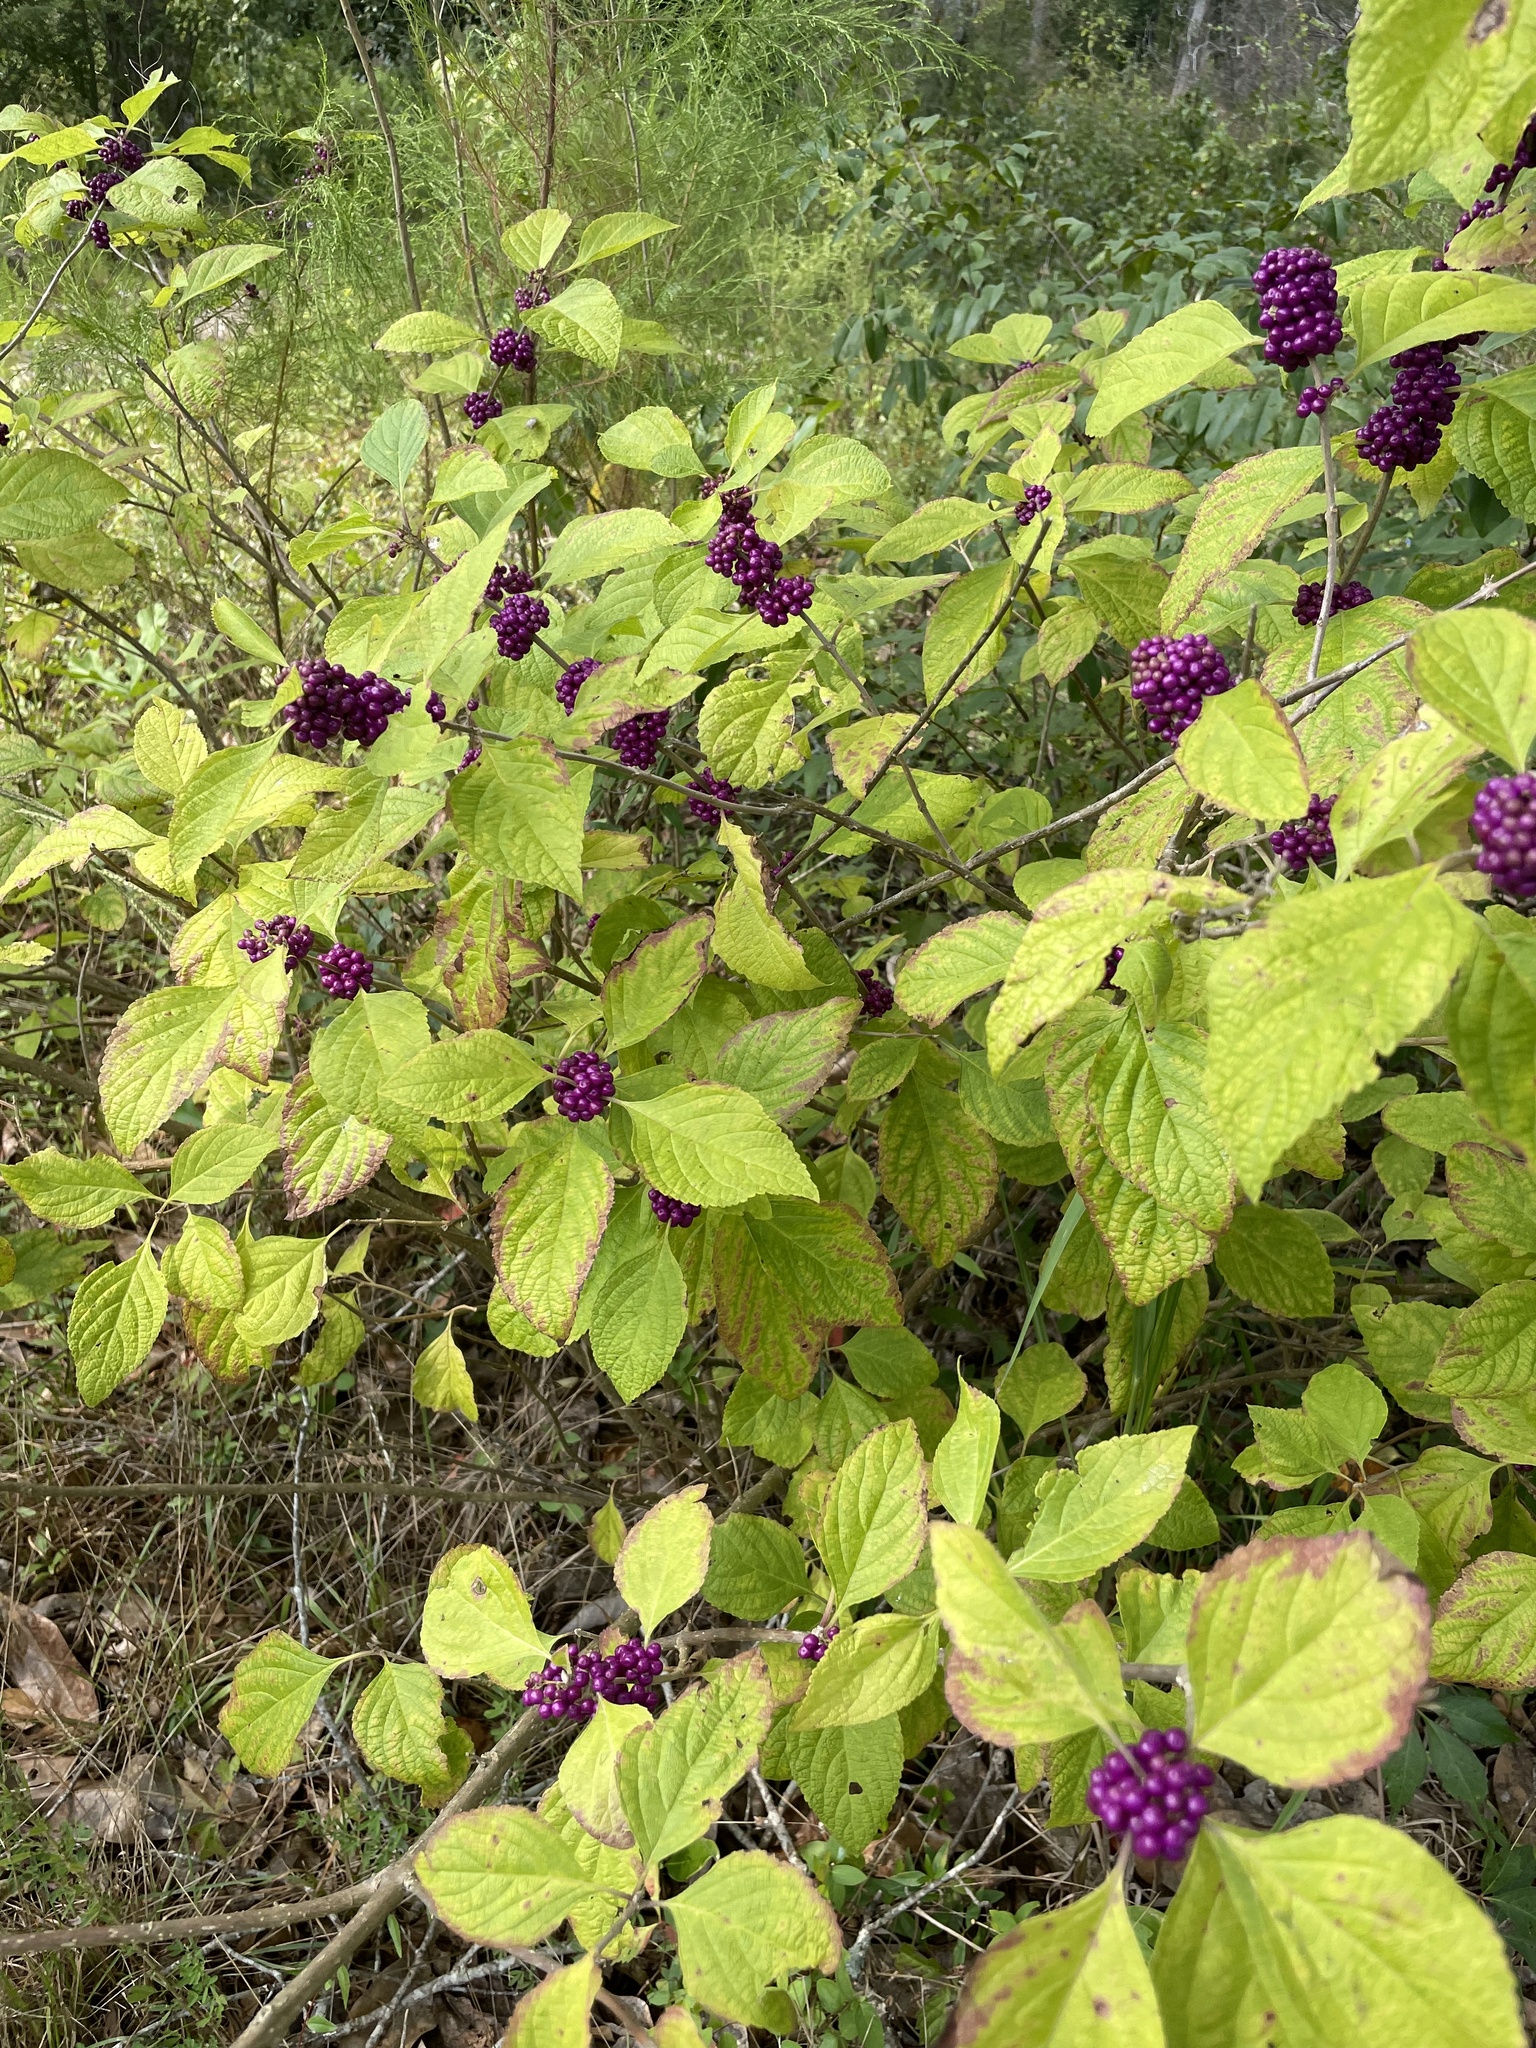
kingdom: Plantae
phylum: Tracheophyta
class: Magnoliopsida
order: Lamiales
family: Lamiaceae
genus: Callicarpa
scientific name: Callicarpa americana
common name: American beautyberry
